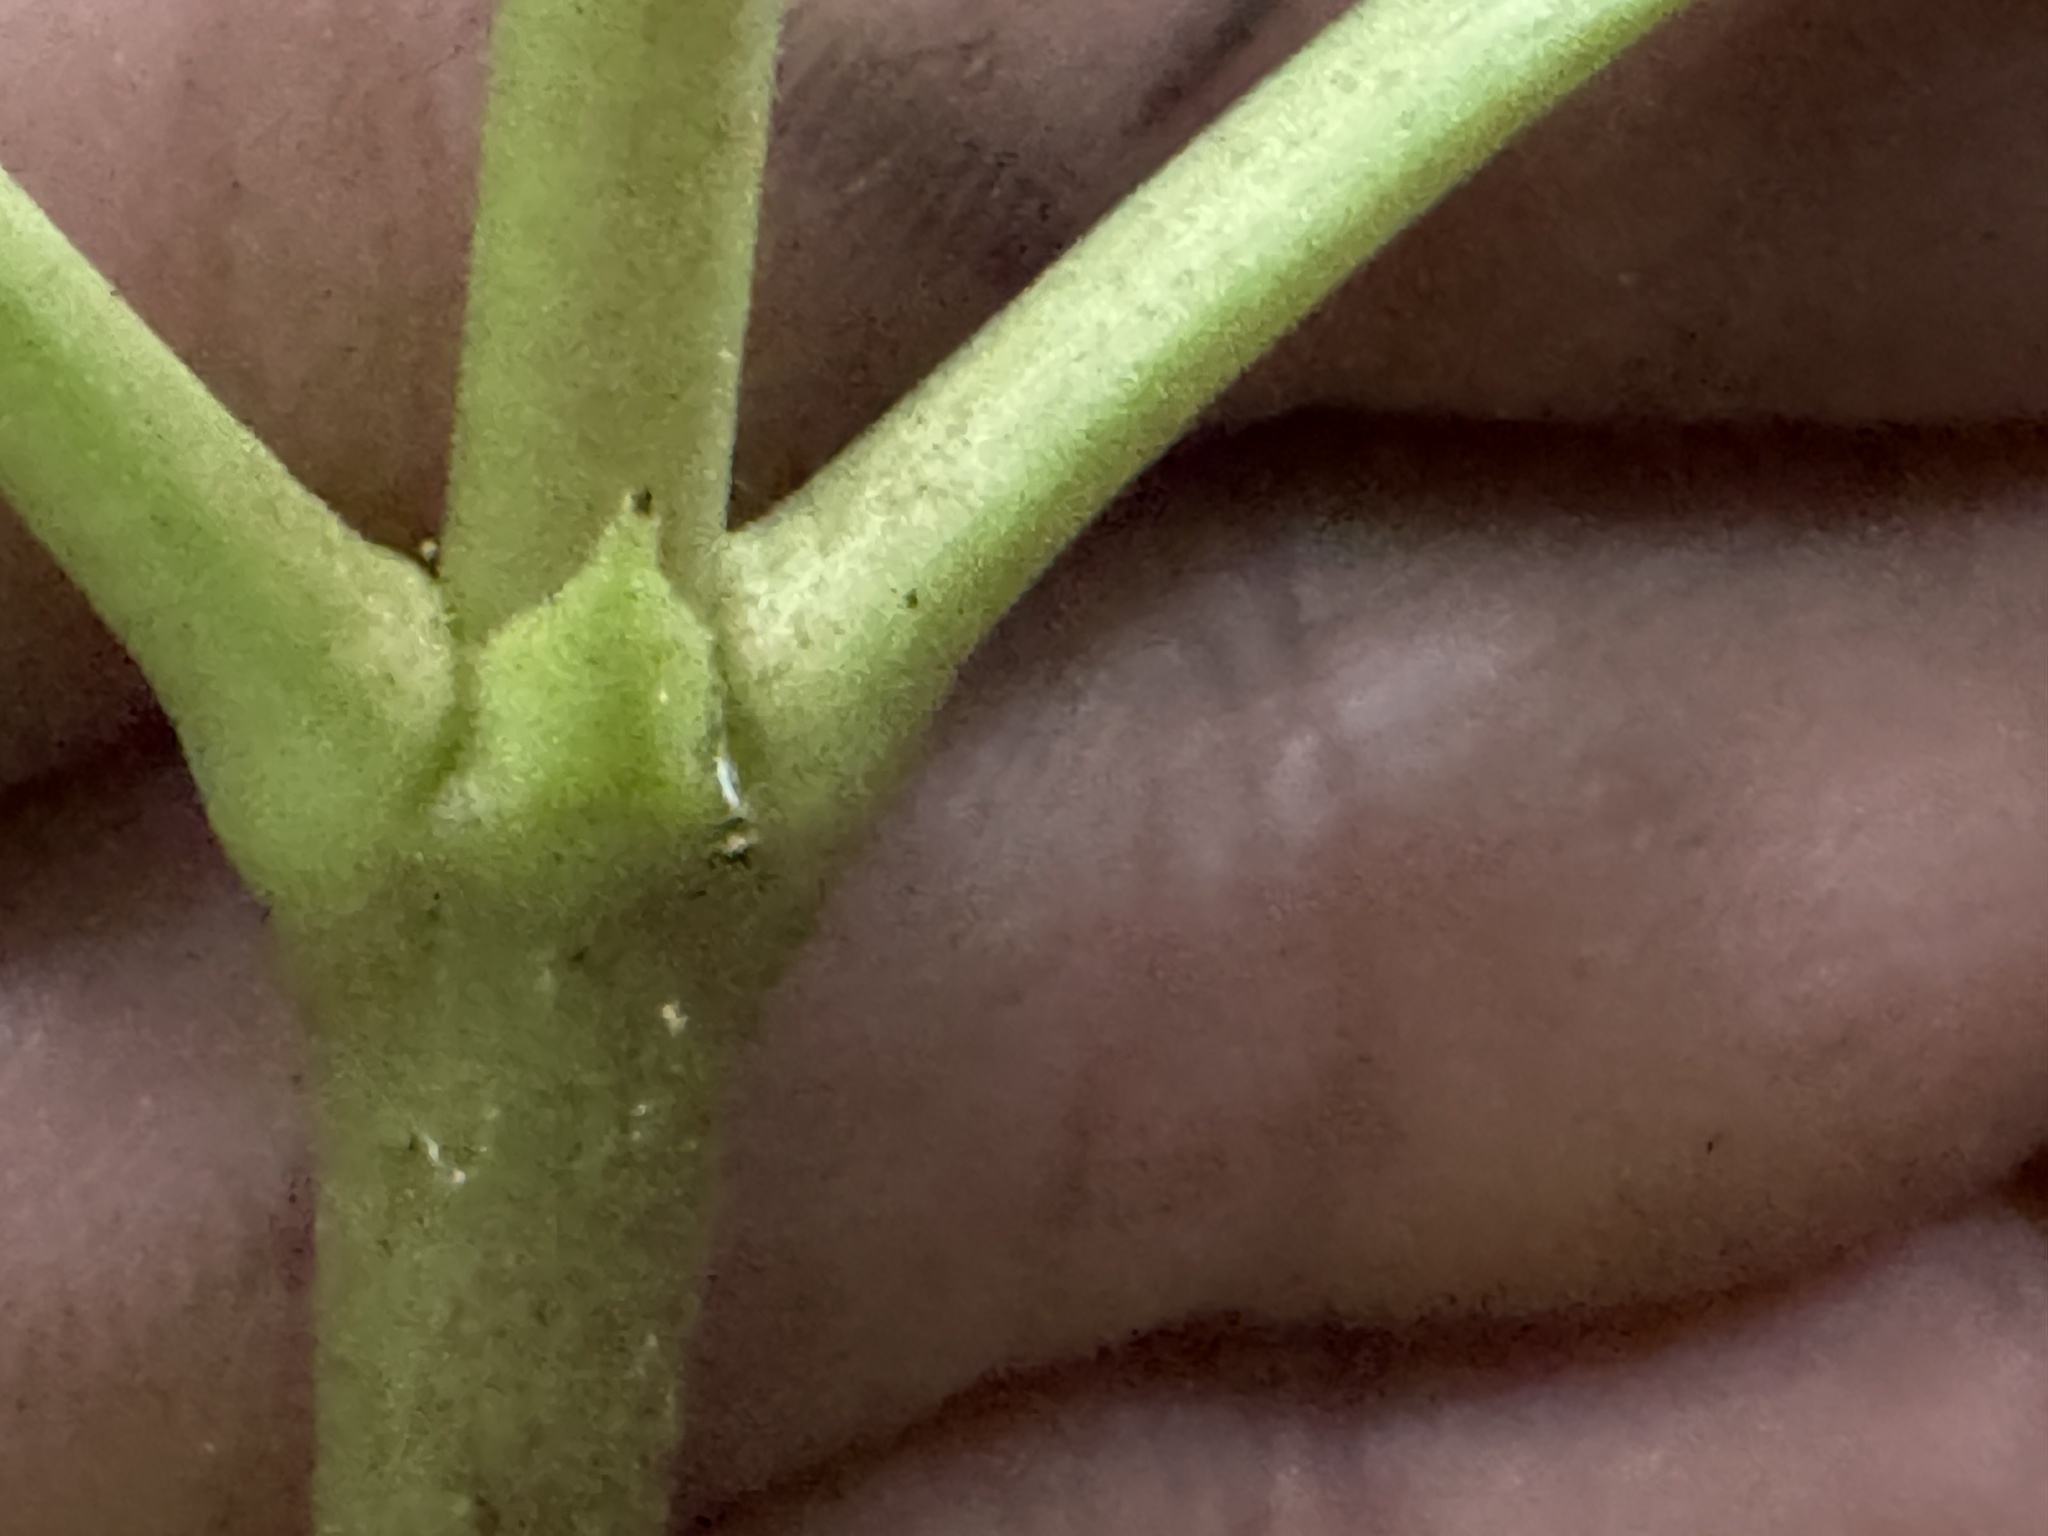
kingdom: Plantae
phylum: Tracheophyta
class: Magnoliopsida
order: Gentianales
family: Rubiaceae
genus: Coprosma
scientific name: Coprosma lucida
